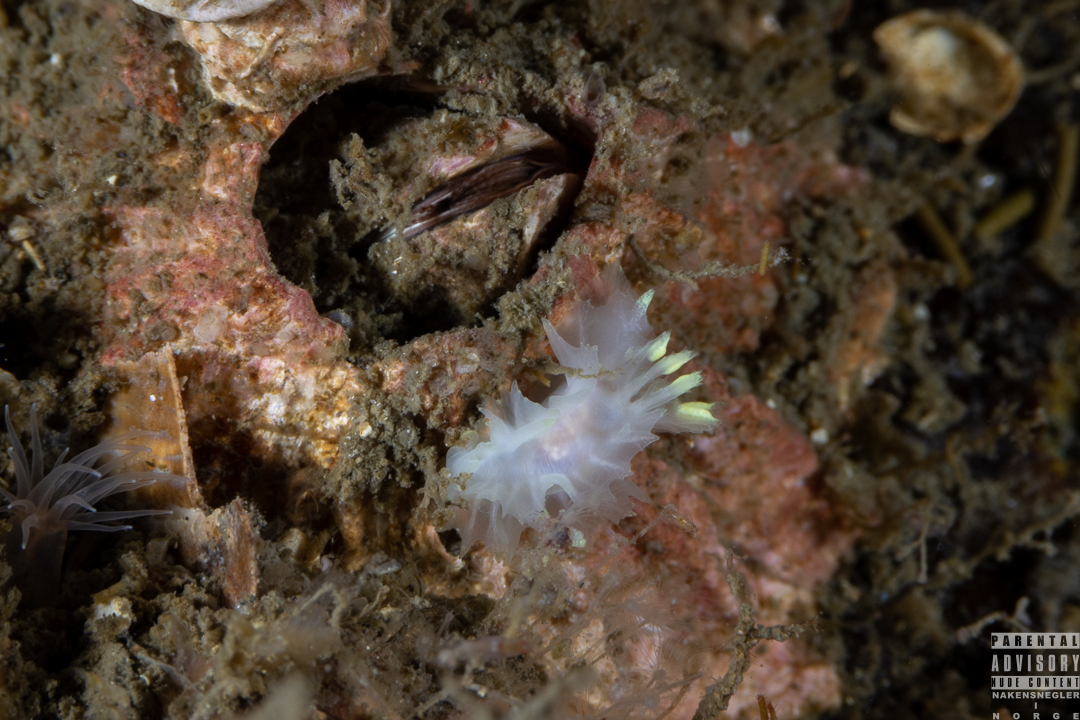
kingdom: Animalia
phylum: Mollusca
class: Gastropoda
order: Nudibranchia
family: Goniodorididae
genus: Lophodoris
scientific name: Lophodoris danielsseni
